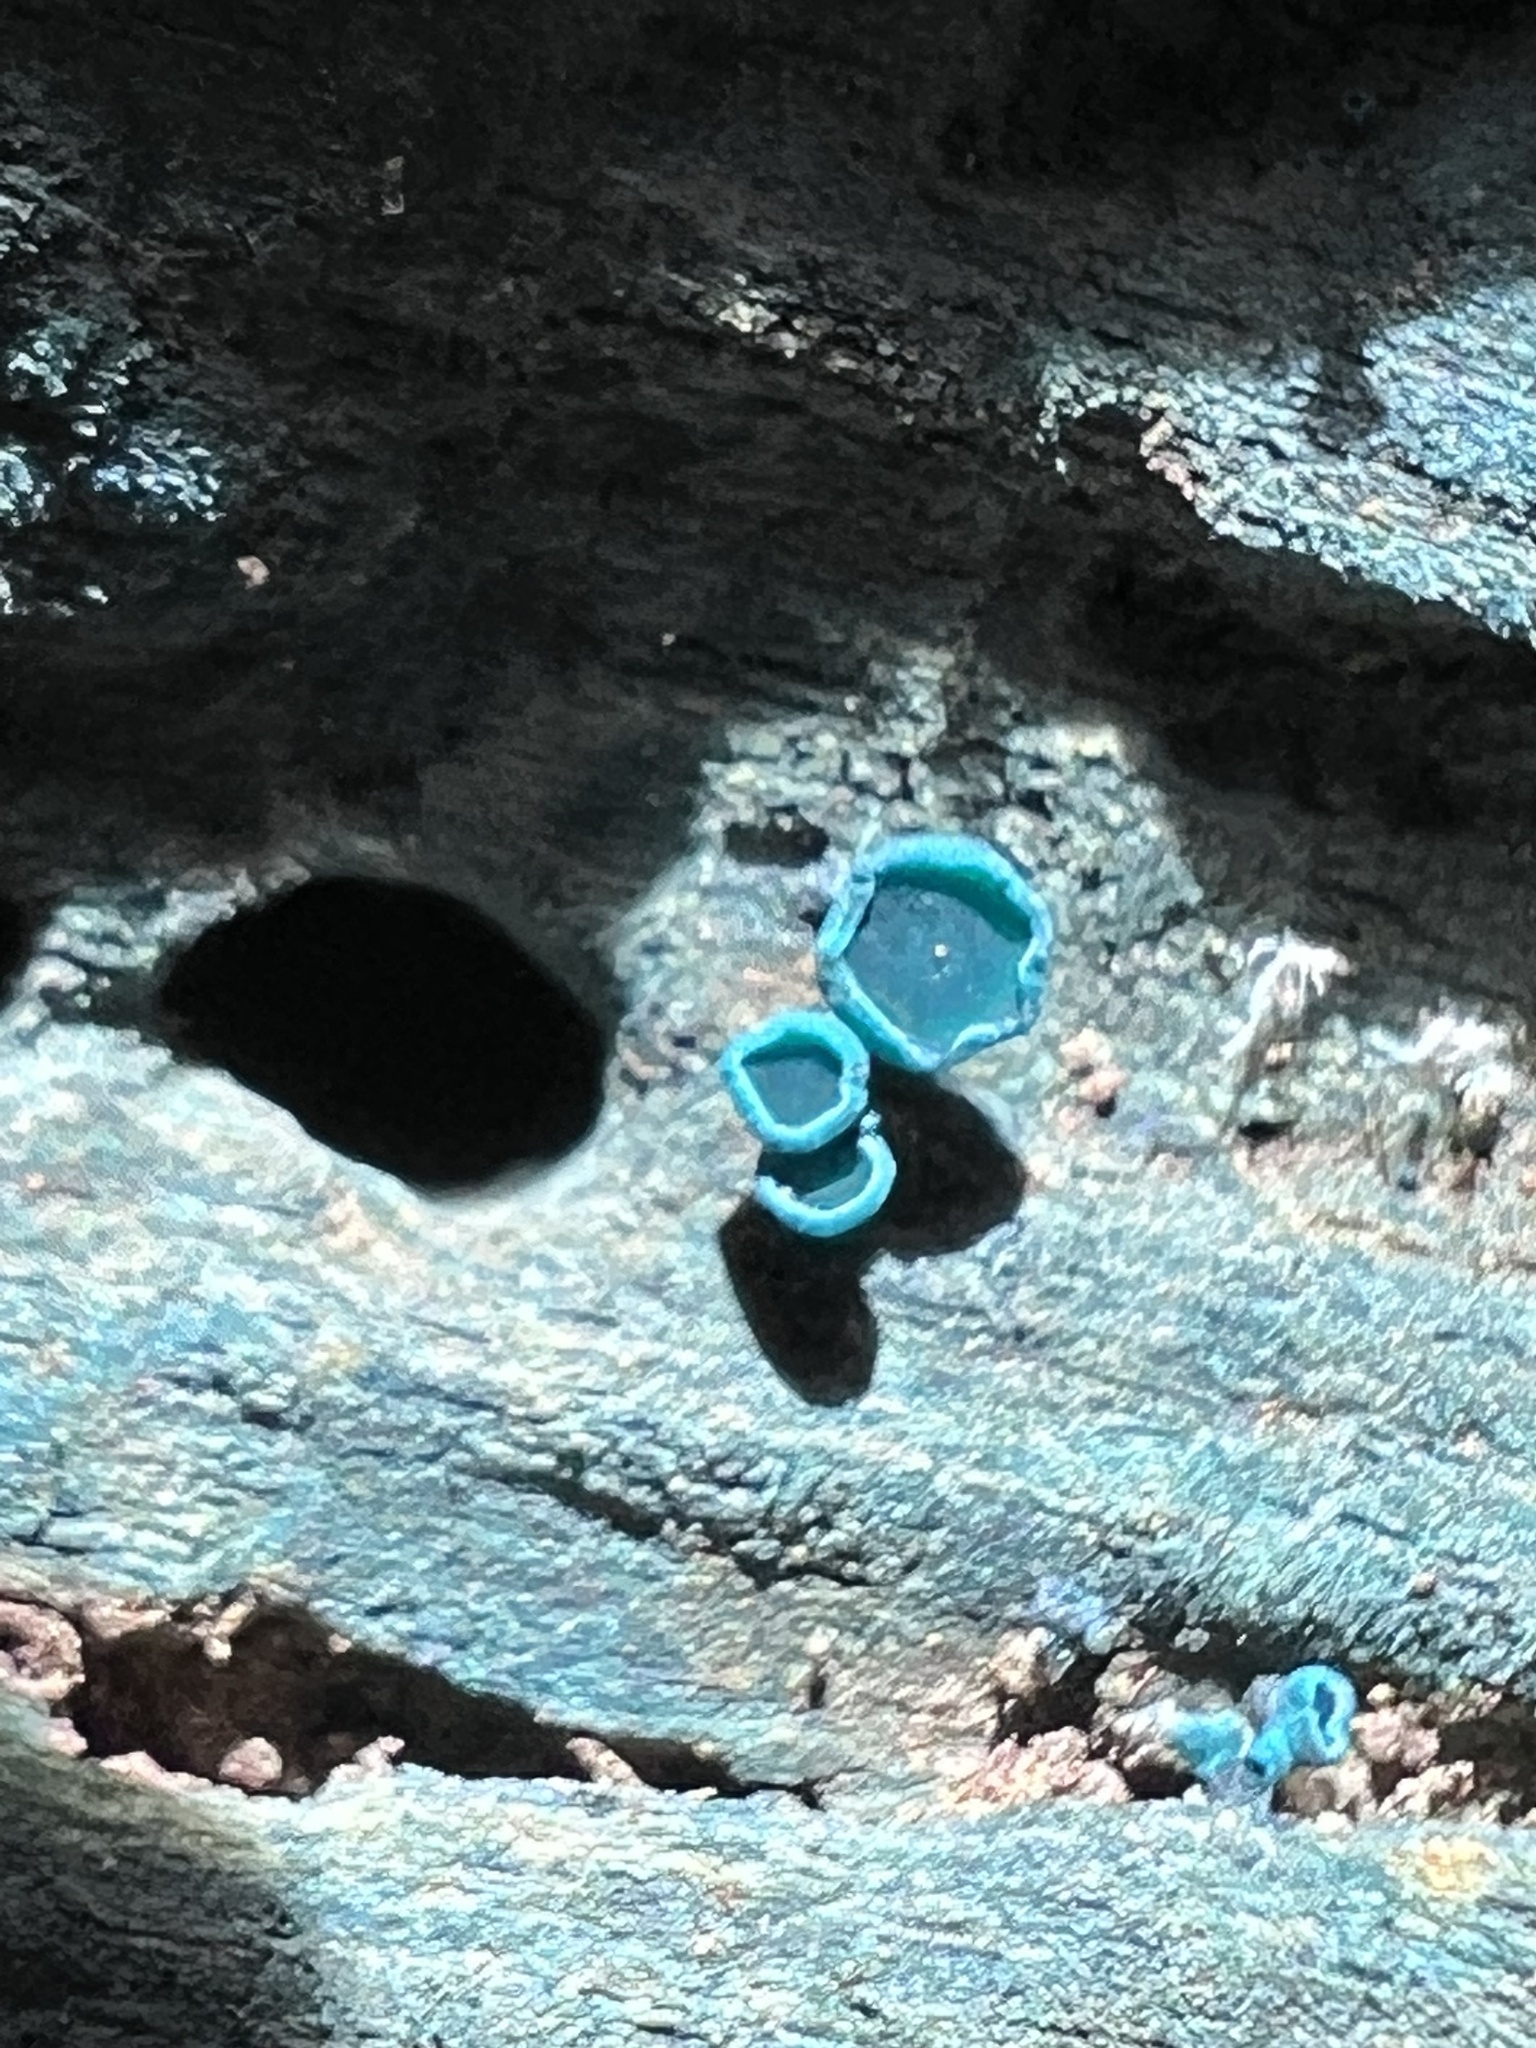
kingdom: Fungi
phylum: Ascomycota
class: Leotiomycetes
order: Helotiales
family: Chlorociboriaceae
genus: Chlorociboria
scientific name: Chlorociboria aeruginosa
